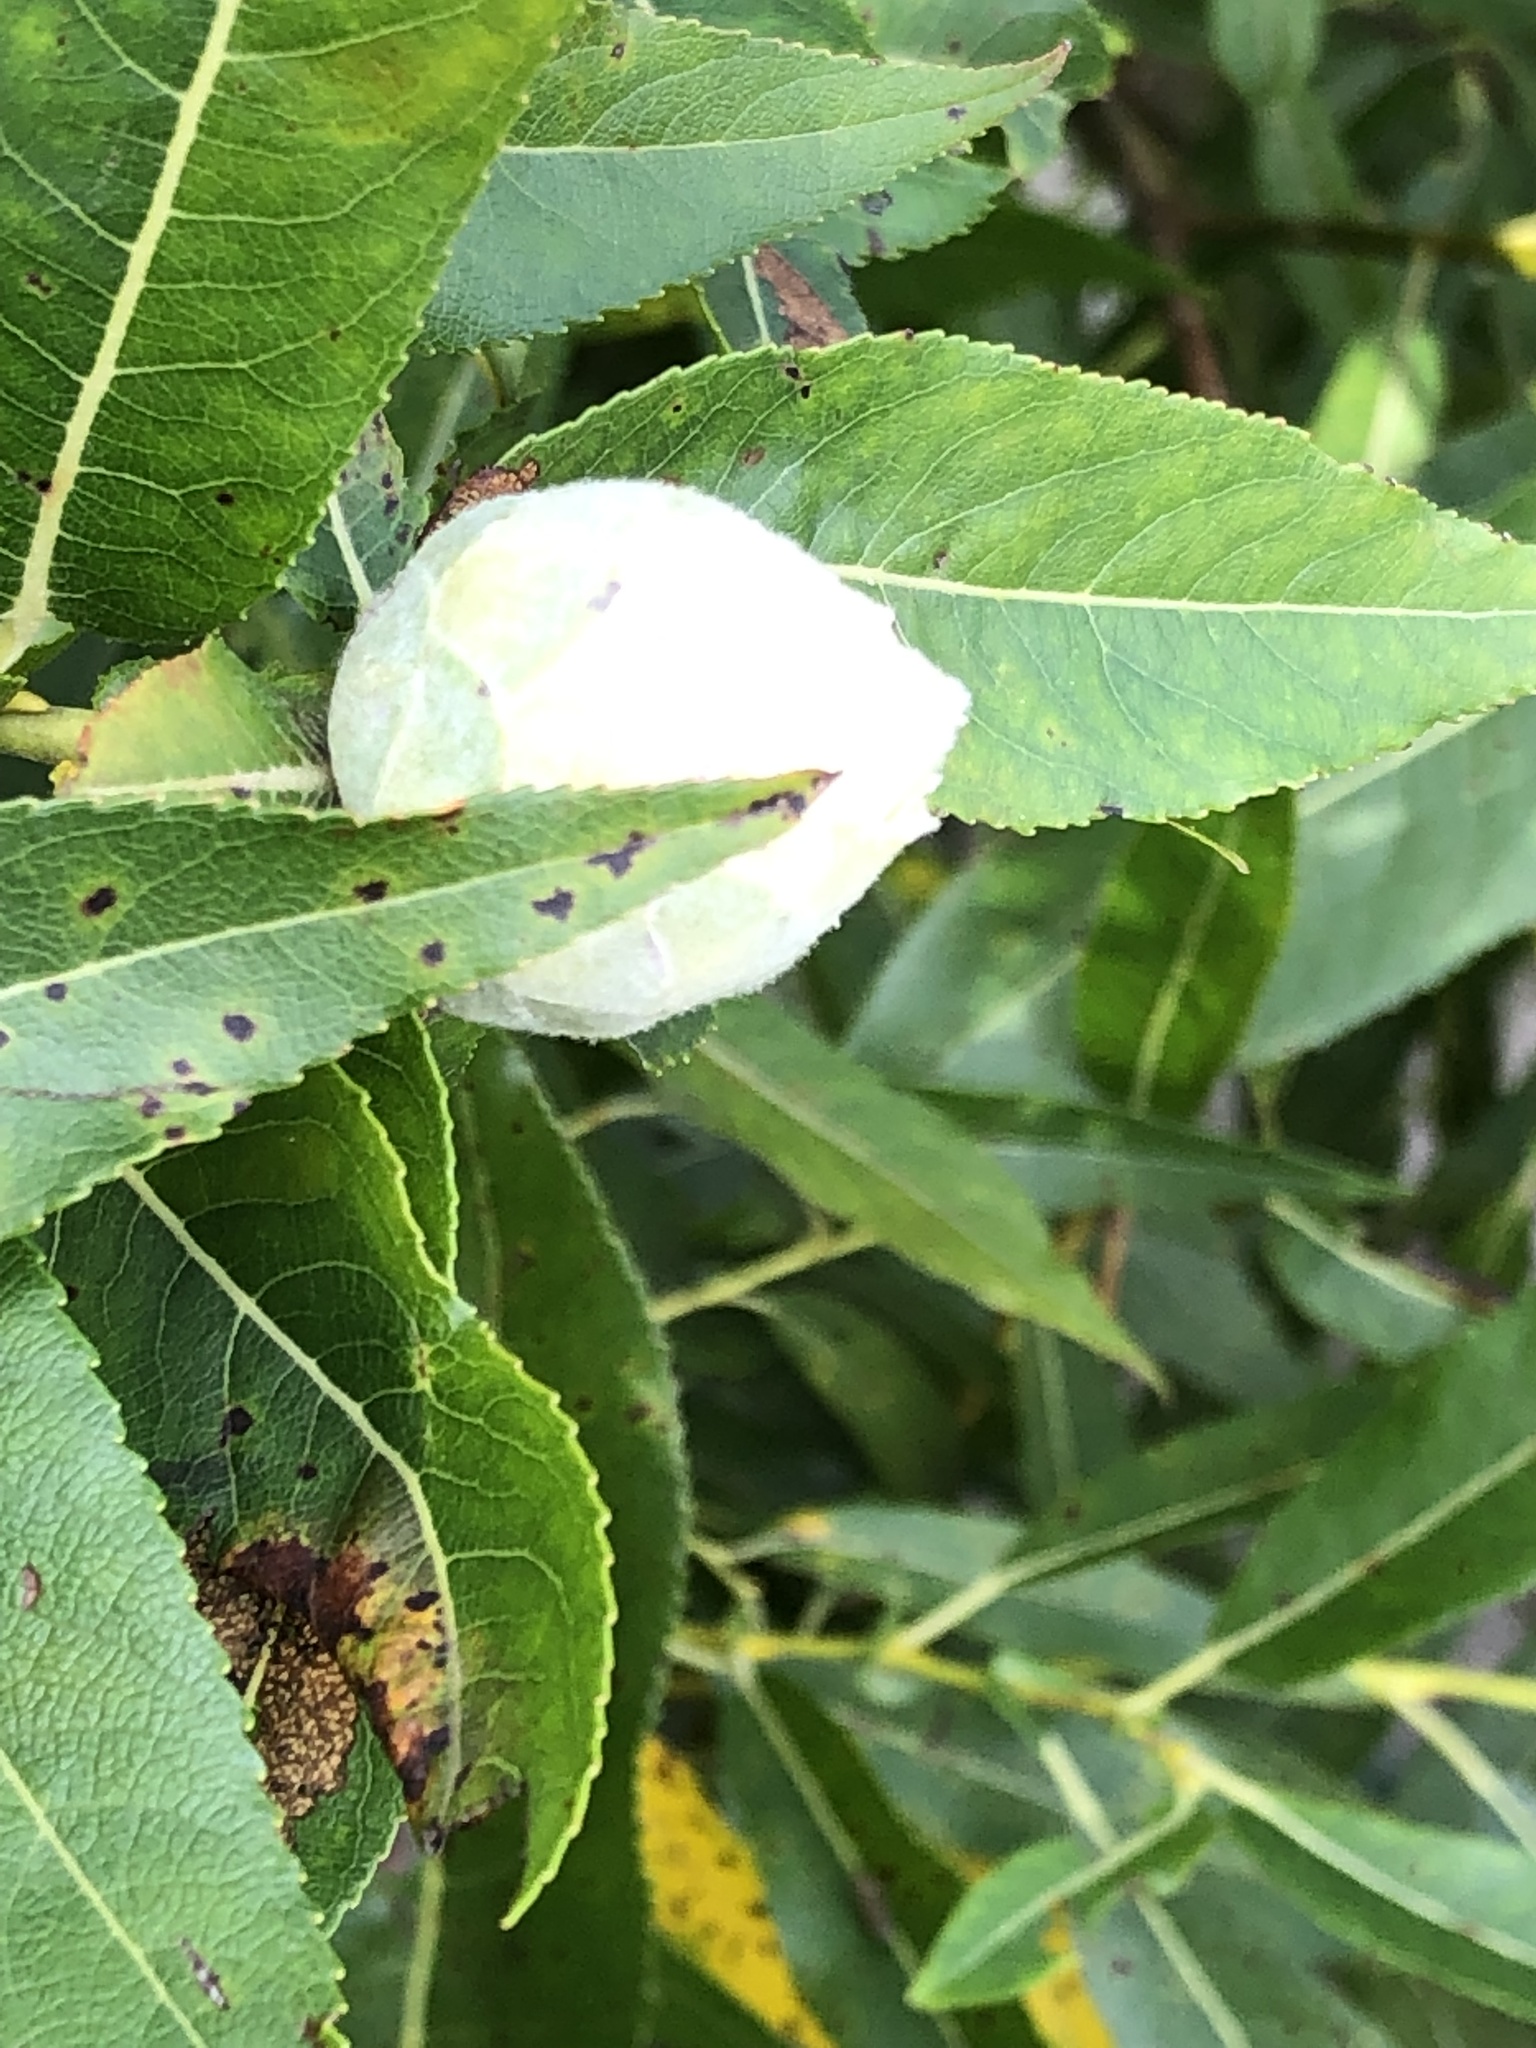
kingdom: Animalia
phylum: Arthropoda
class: Insecta
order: Diptera
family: Cecidomyiidae
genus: Rabdophaga
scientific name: Rabdophaga strobiloides
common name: Willow pinecone gall midge
